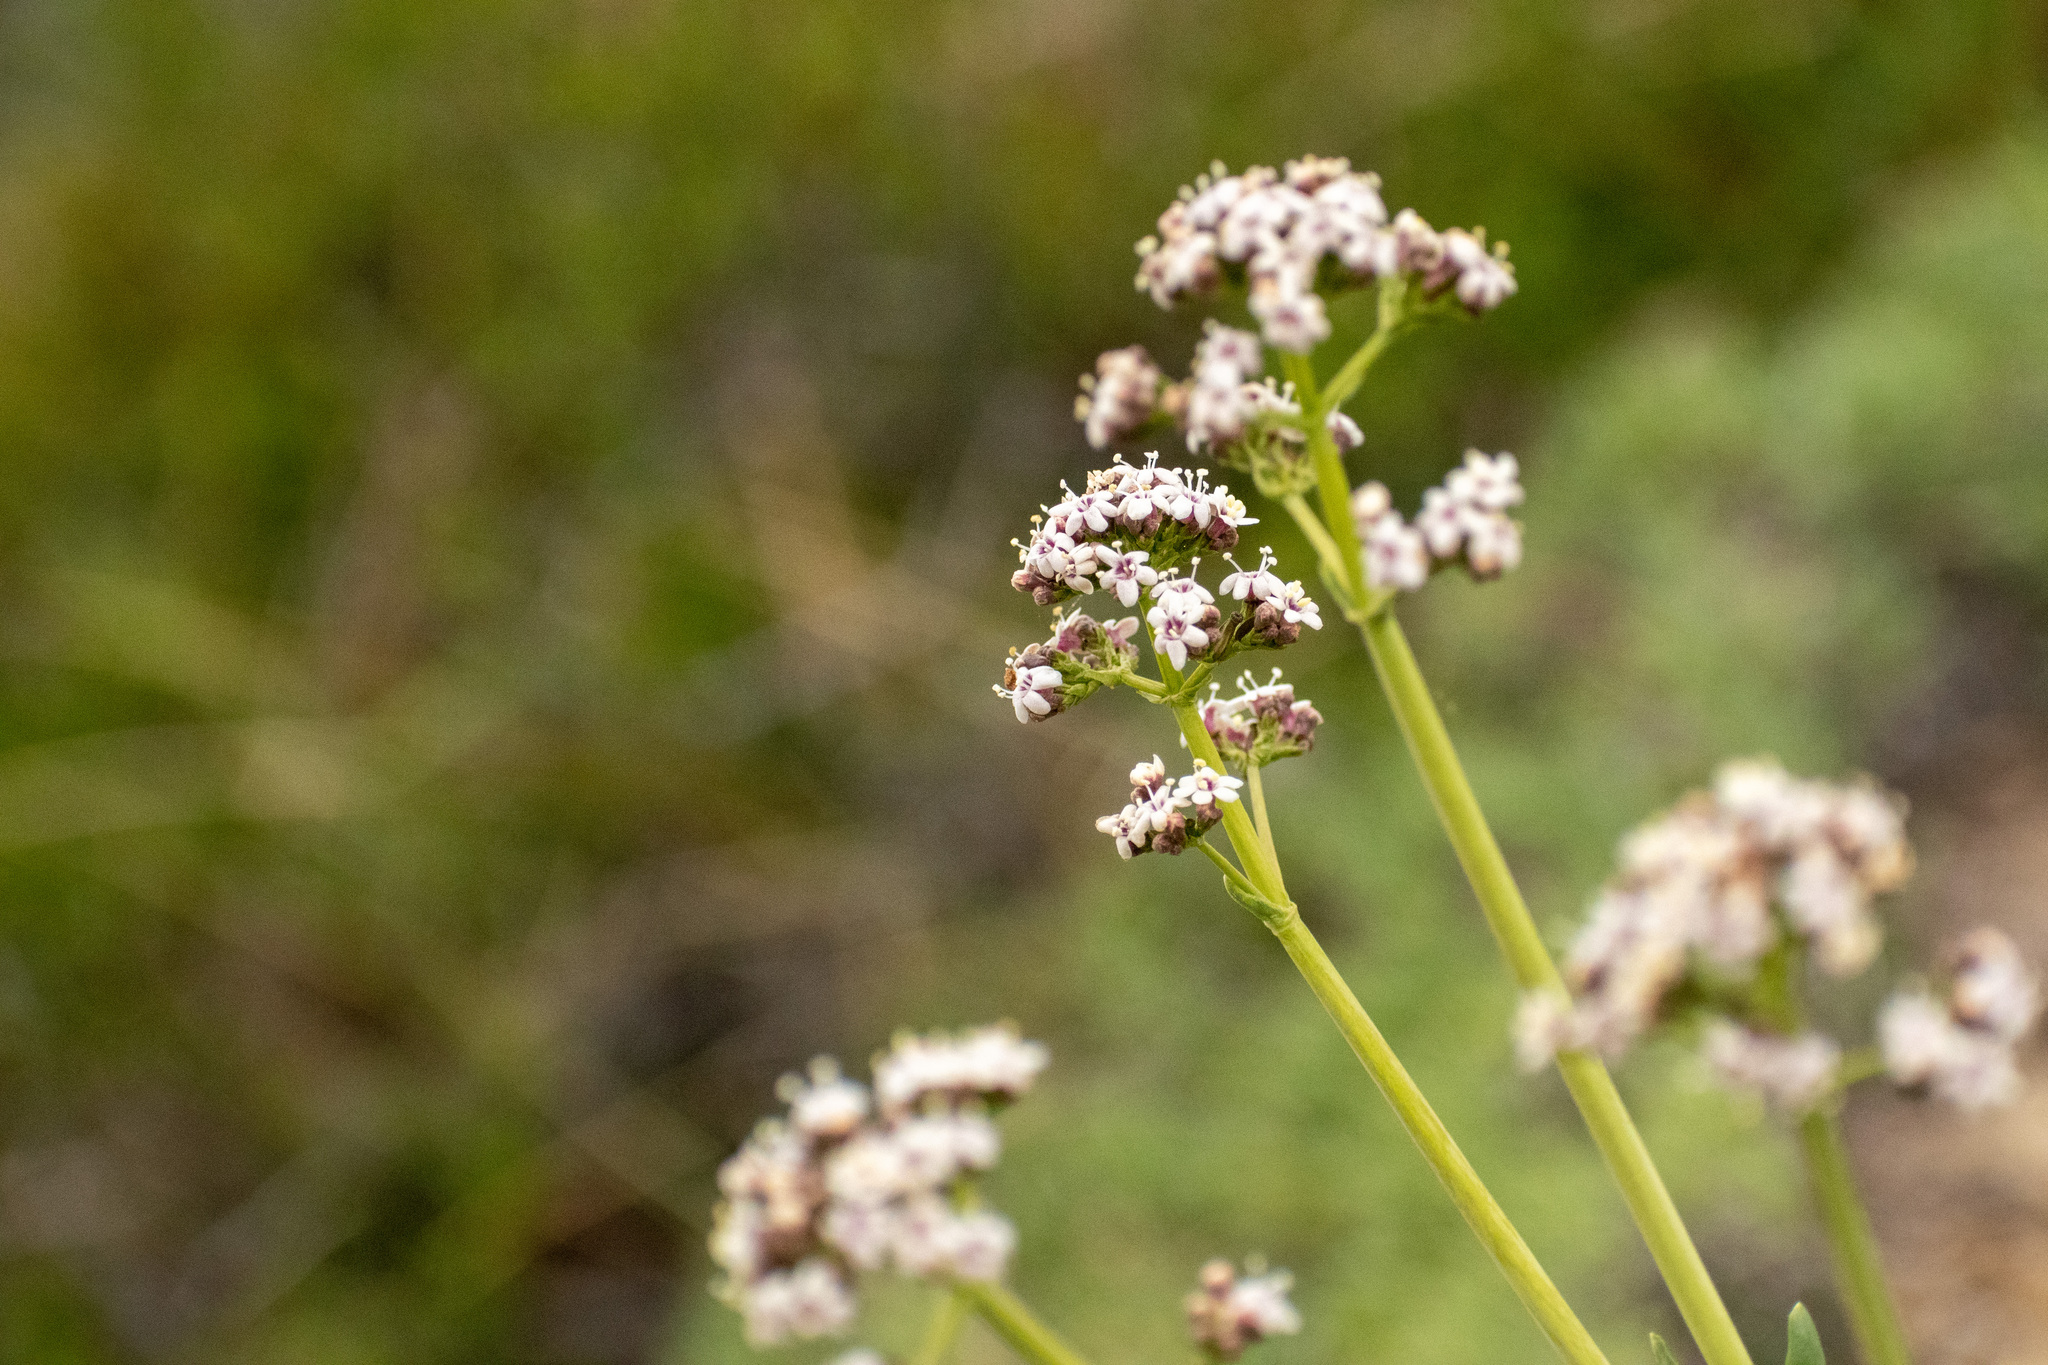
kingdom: Plantae
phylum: Tracheophyta
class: Magnoliopsida
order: Dipsacales
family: Caprifoliaceae
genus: Valeriana
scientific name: Valeriana carnosa
